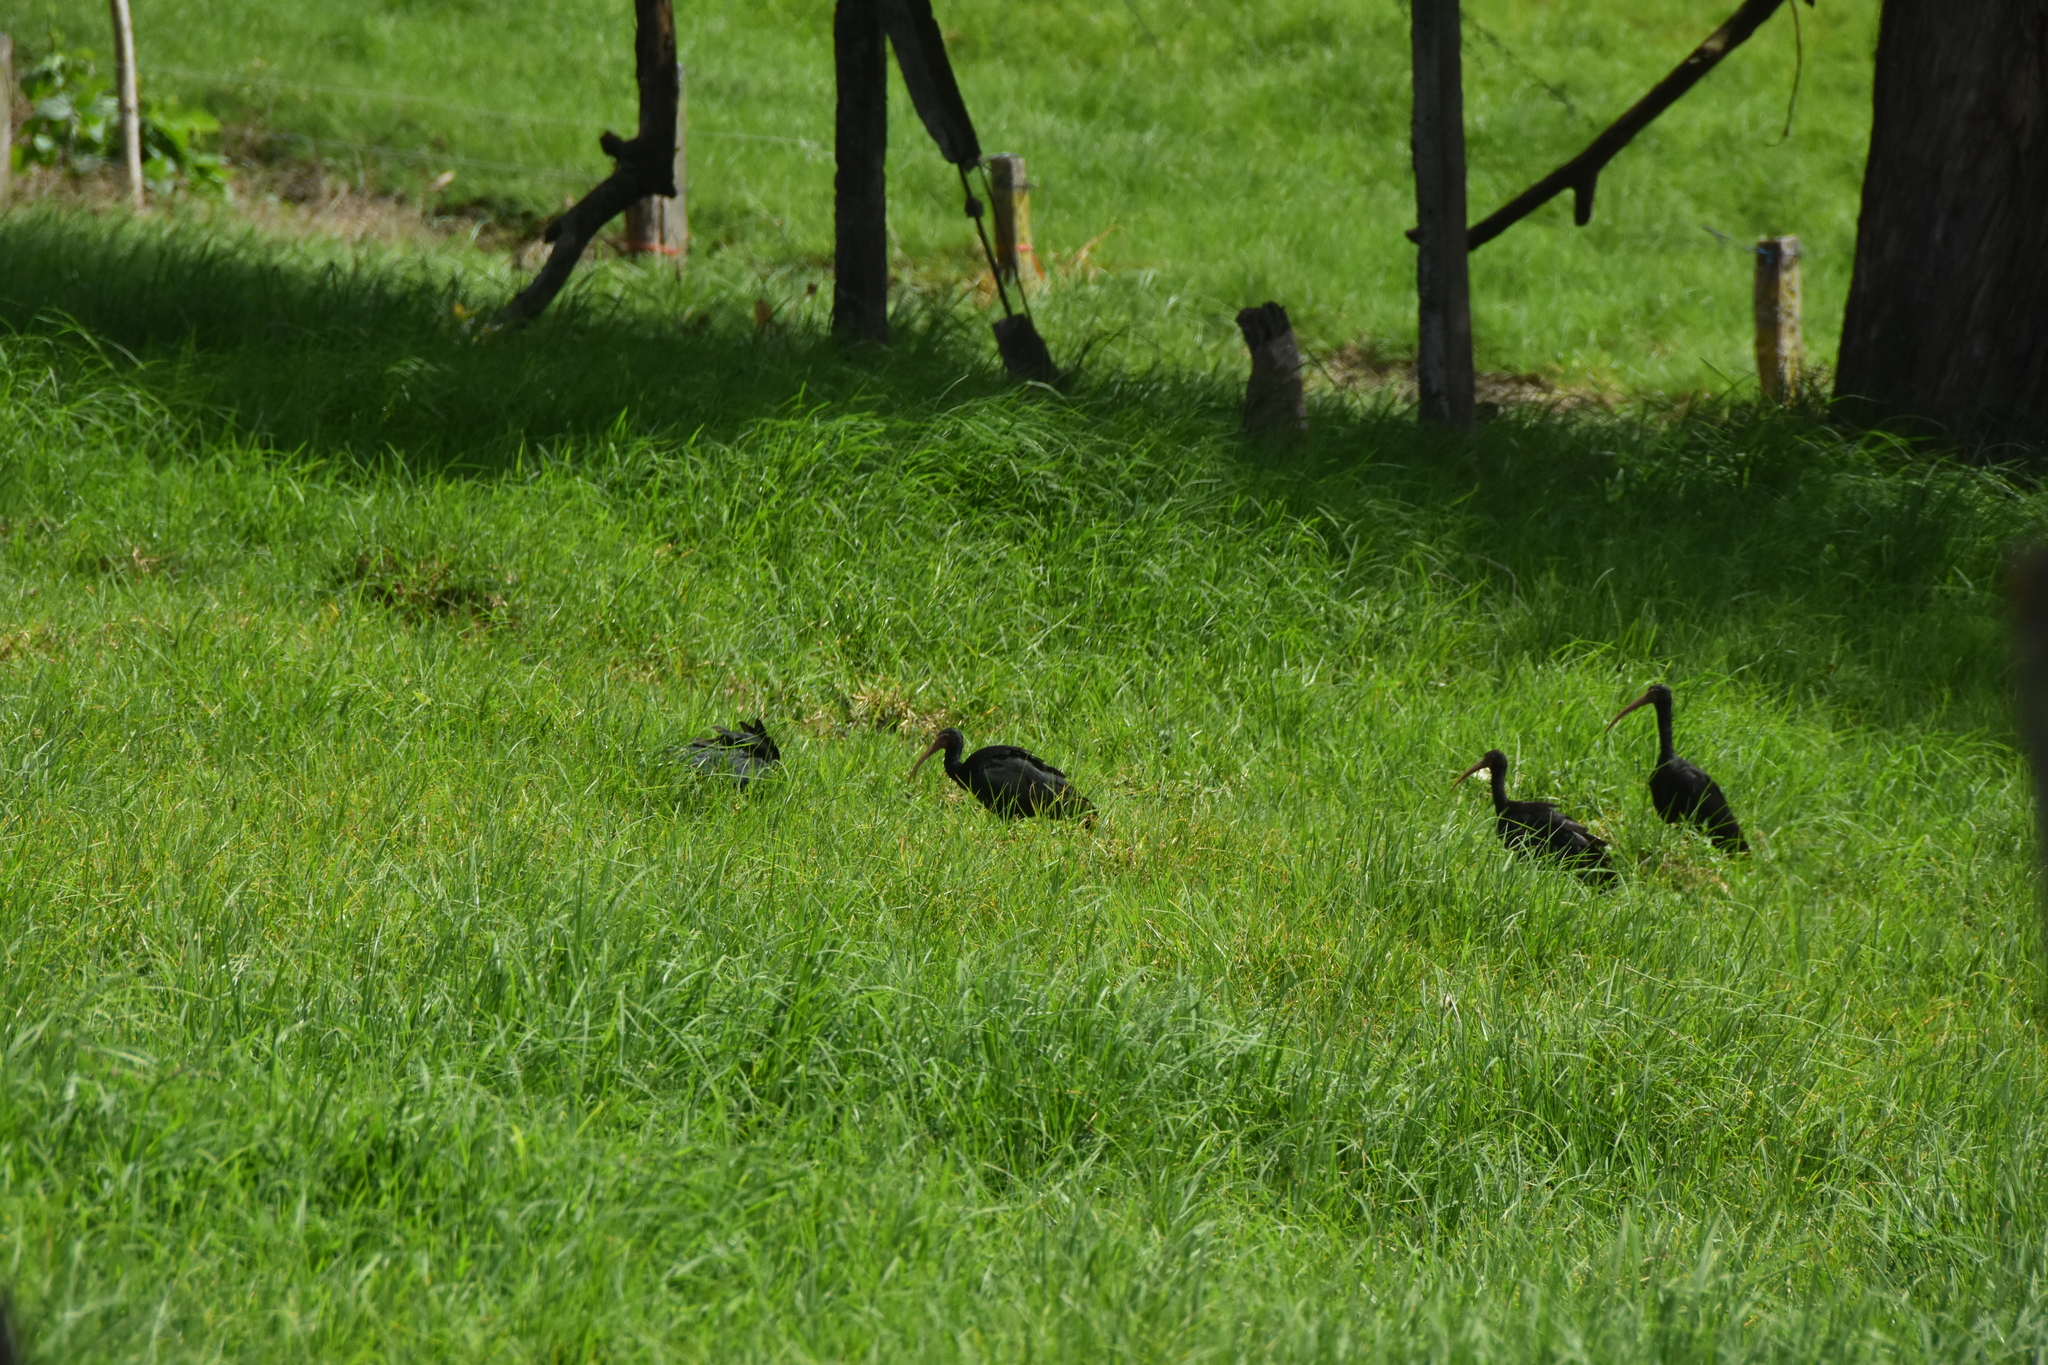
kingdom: Animalia
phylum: Chordata
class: Aves
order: Pelecaniformes
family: Threskiornithidae
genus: Phimosus
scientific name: Phimosus infuscatus
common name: Bare-faced ibis
